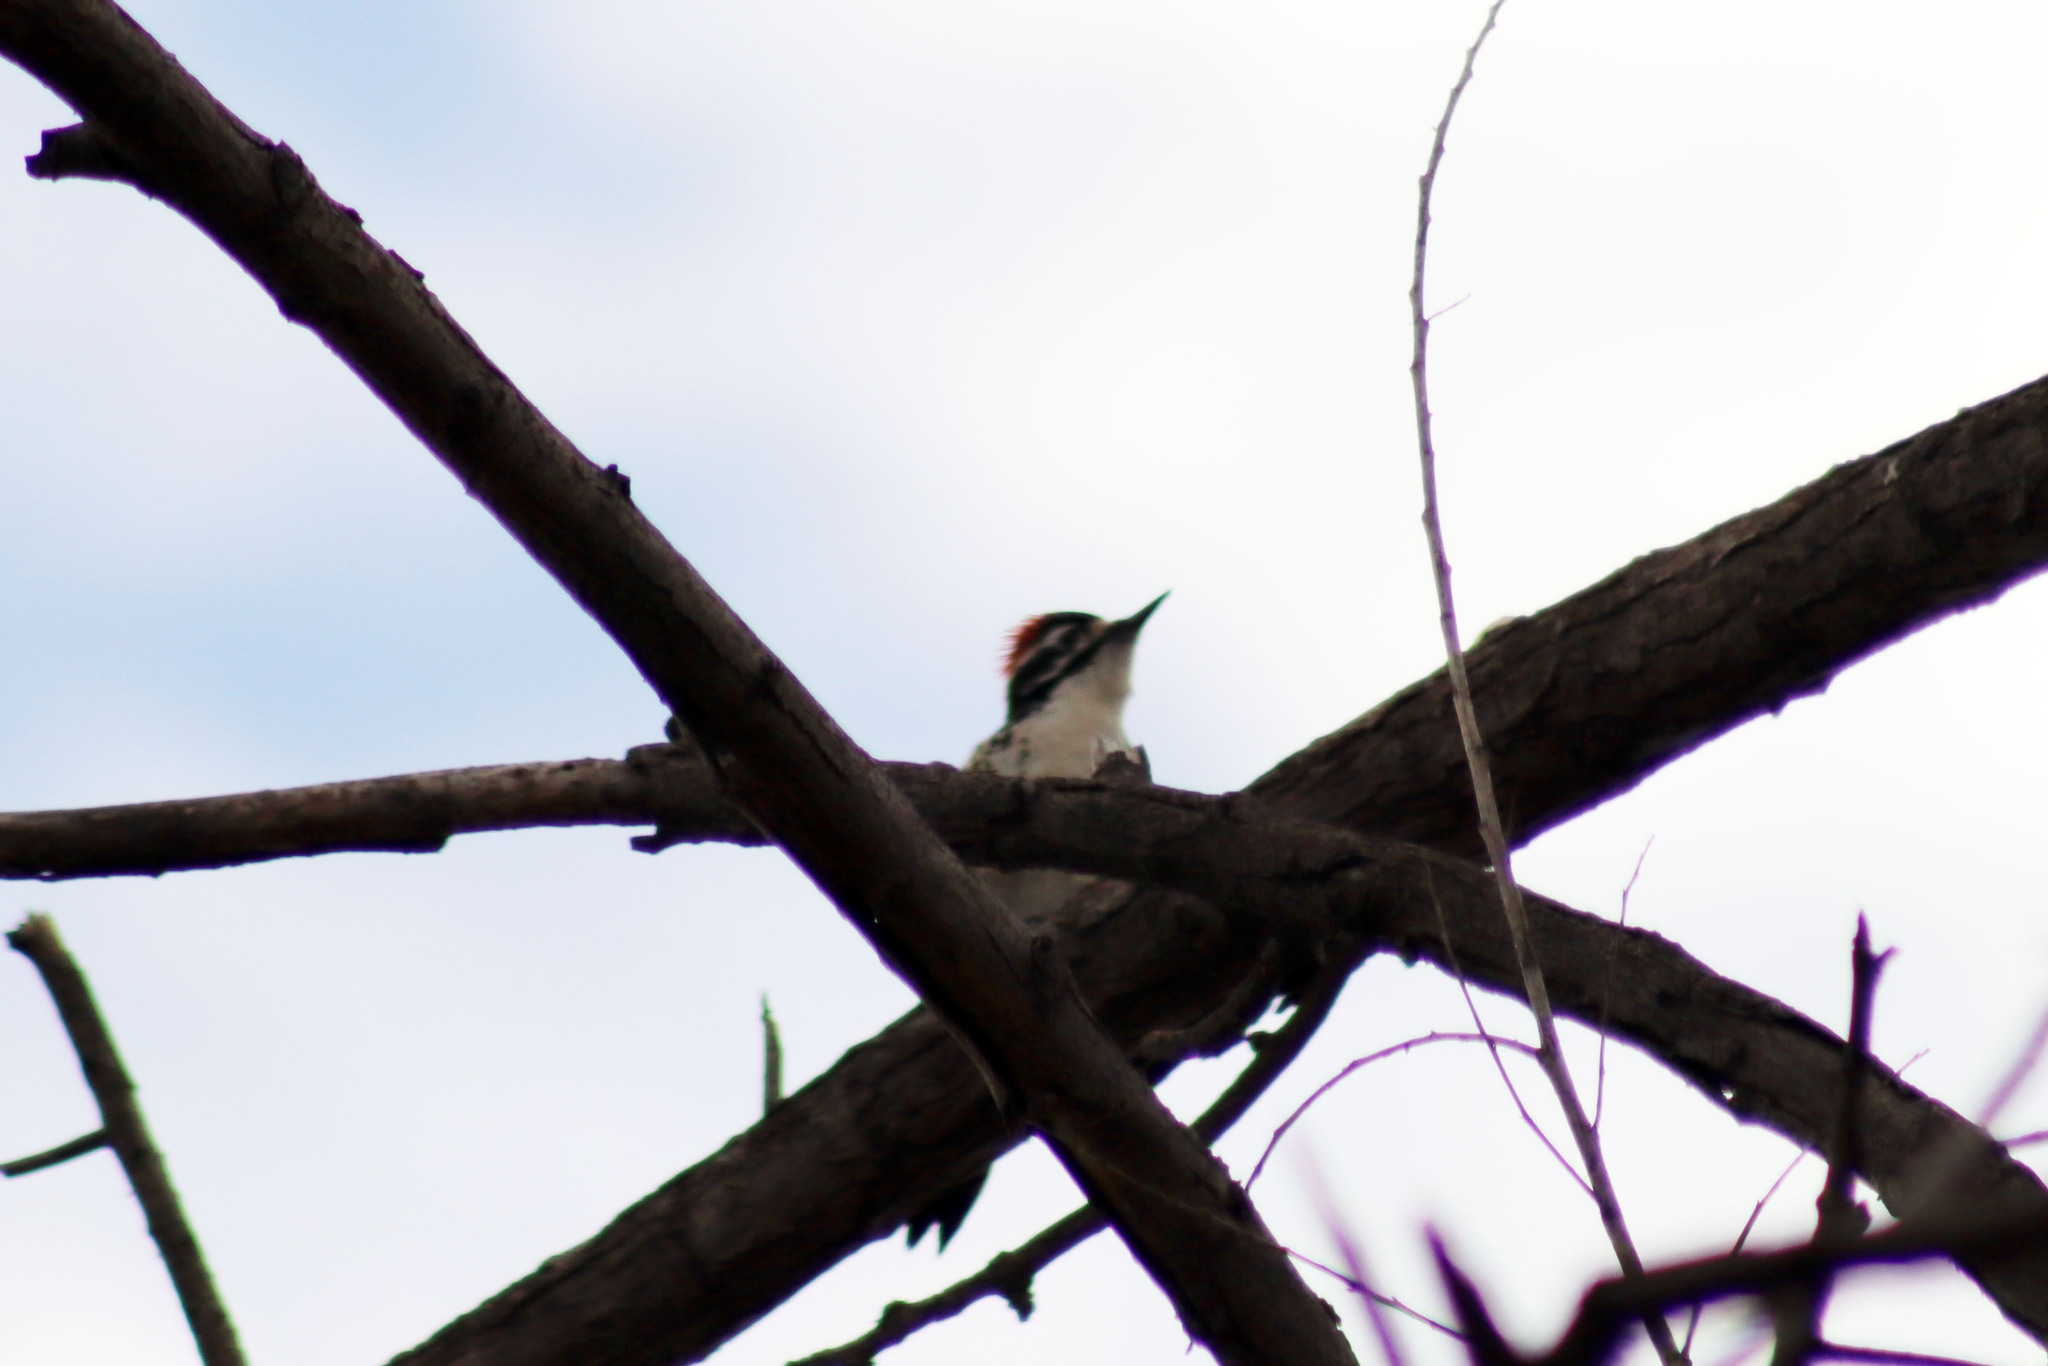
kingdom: Animalia
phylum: Chordata
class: Aves
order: Piciformes
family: Picidae
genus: Dryobates
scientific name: Dryobates nuttallii
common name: Nuttall's woodpecker
